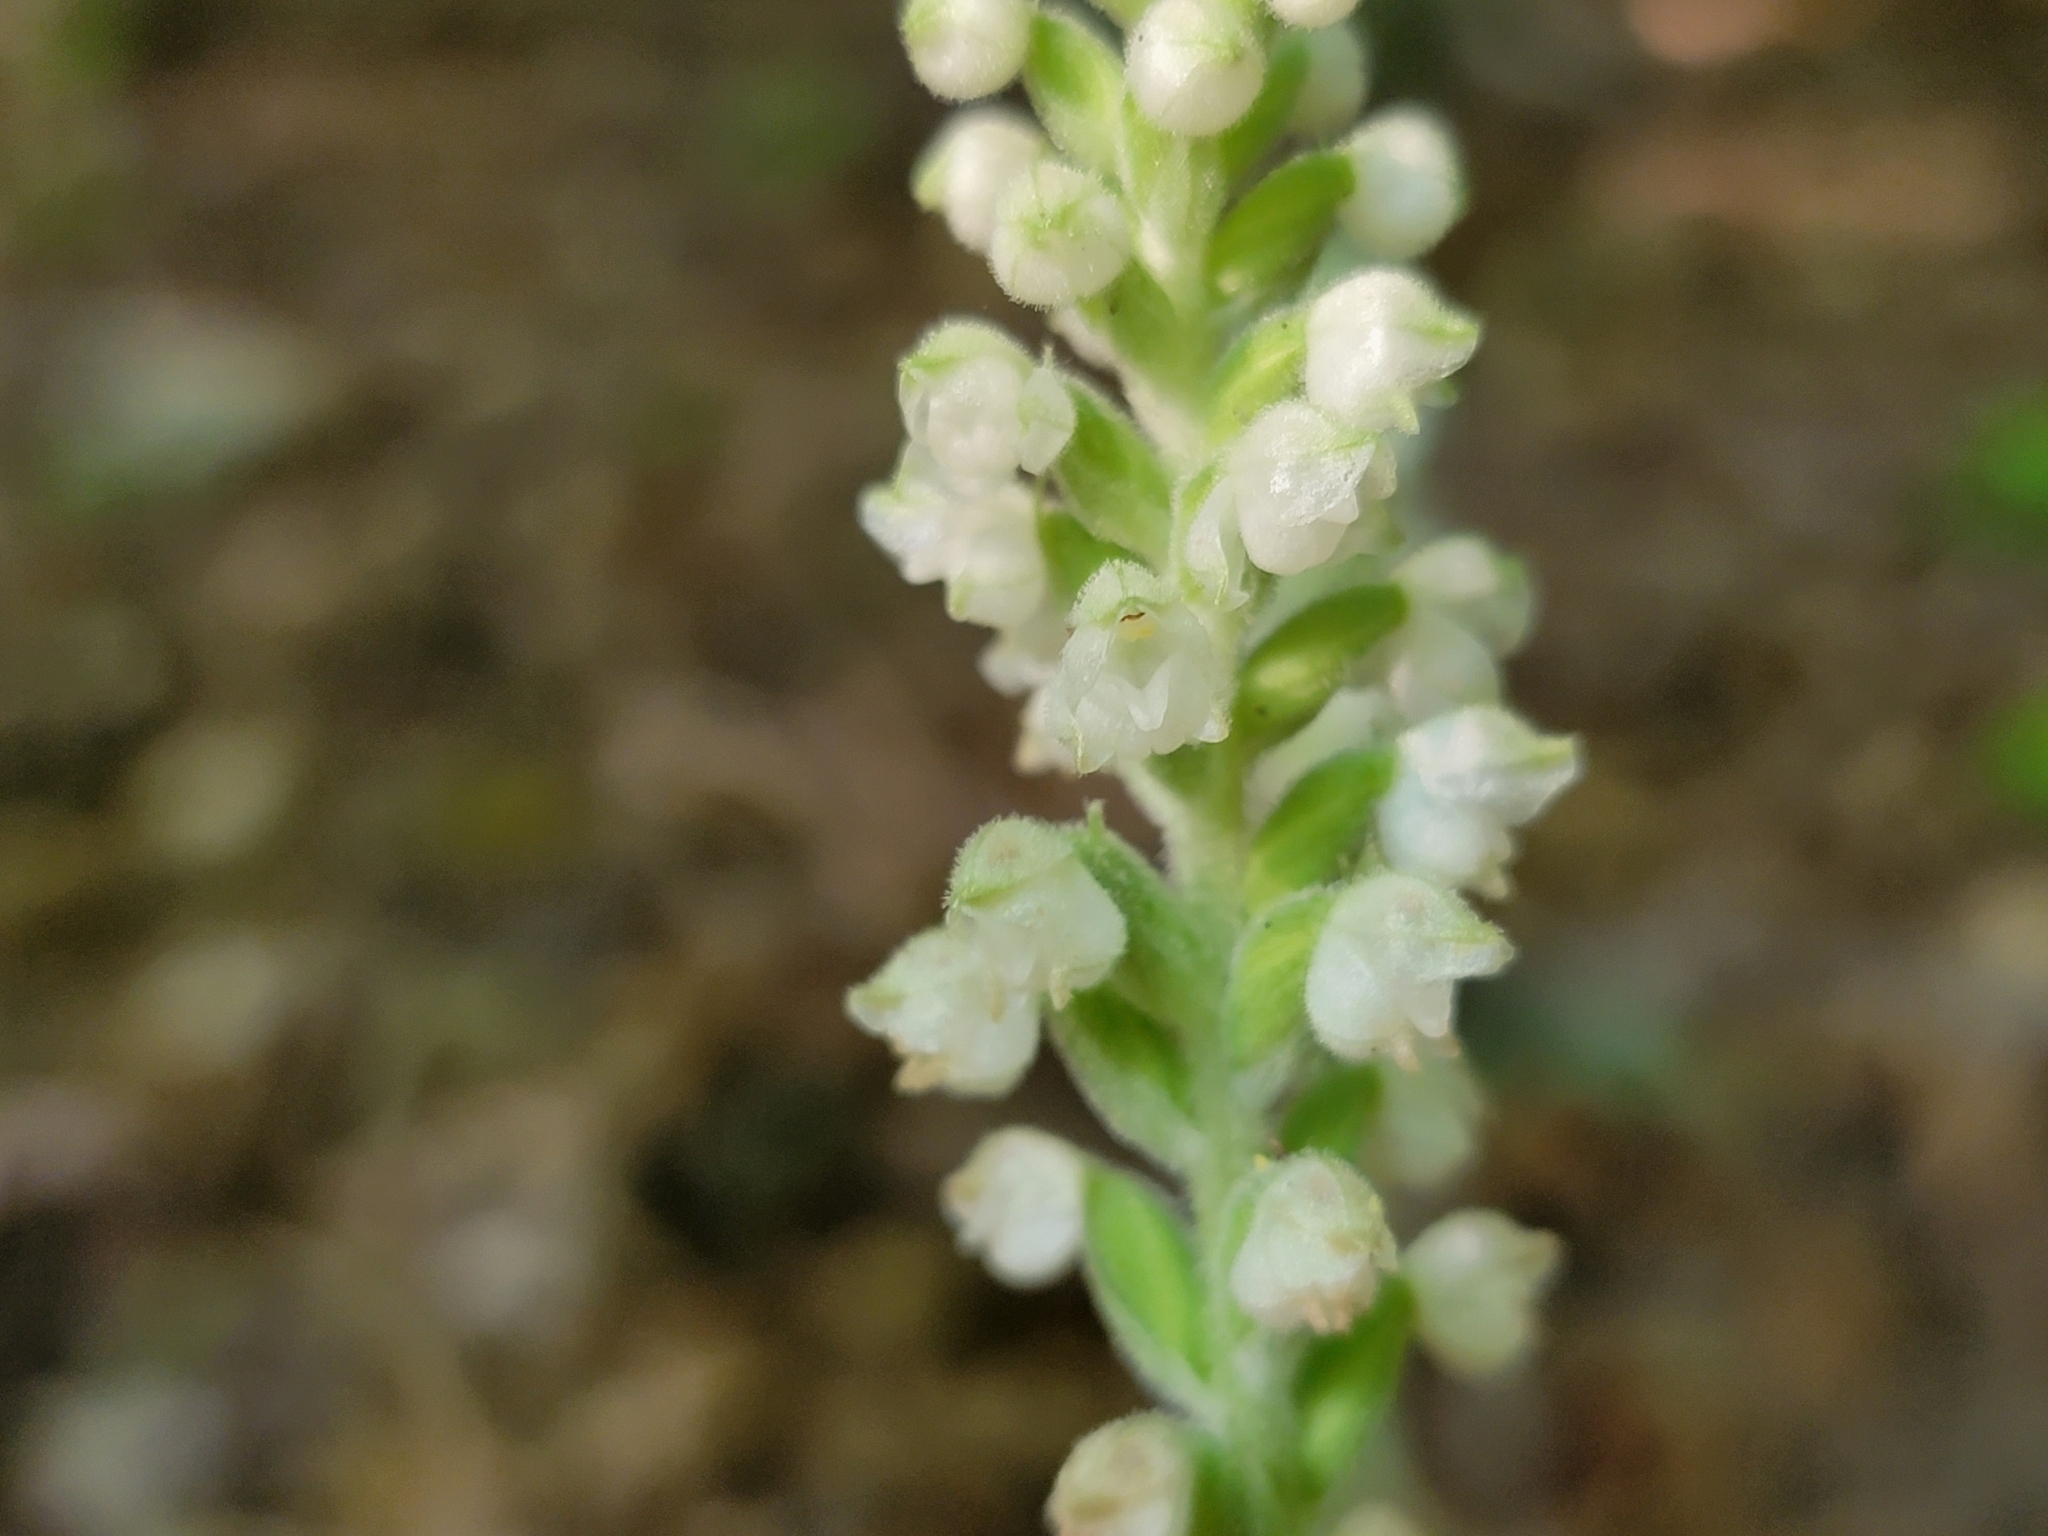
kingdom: Plantae
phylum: Tracheophyta
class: Liliopsida
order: Asparagales
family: Orchidaceae
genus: Goodyera
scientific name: Goodyera pubescens
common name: Downy rattlesnake-plantain
